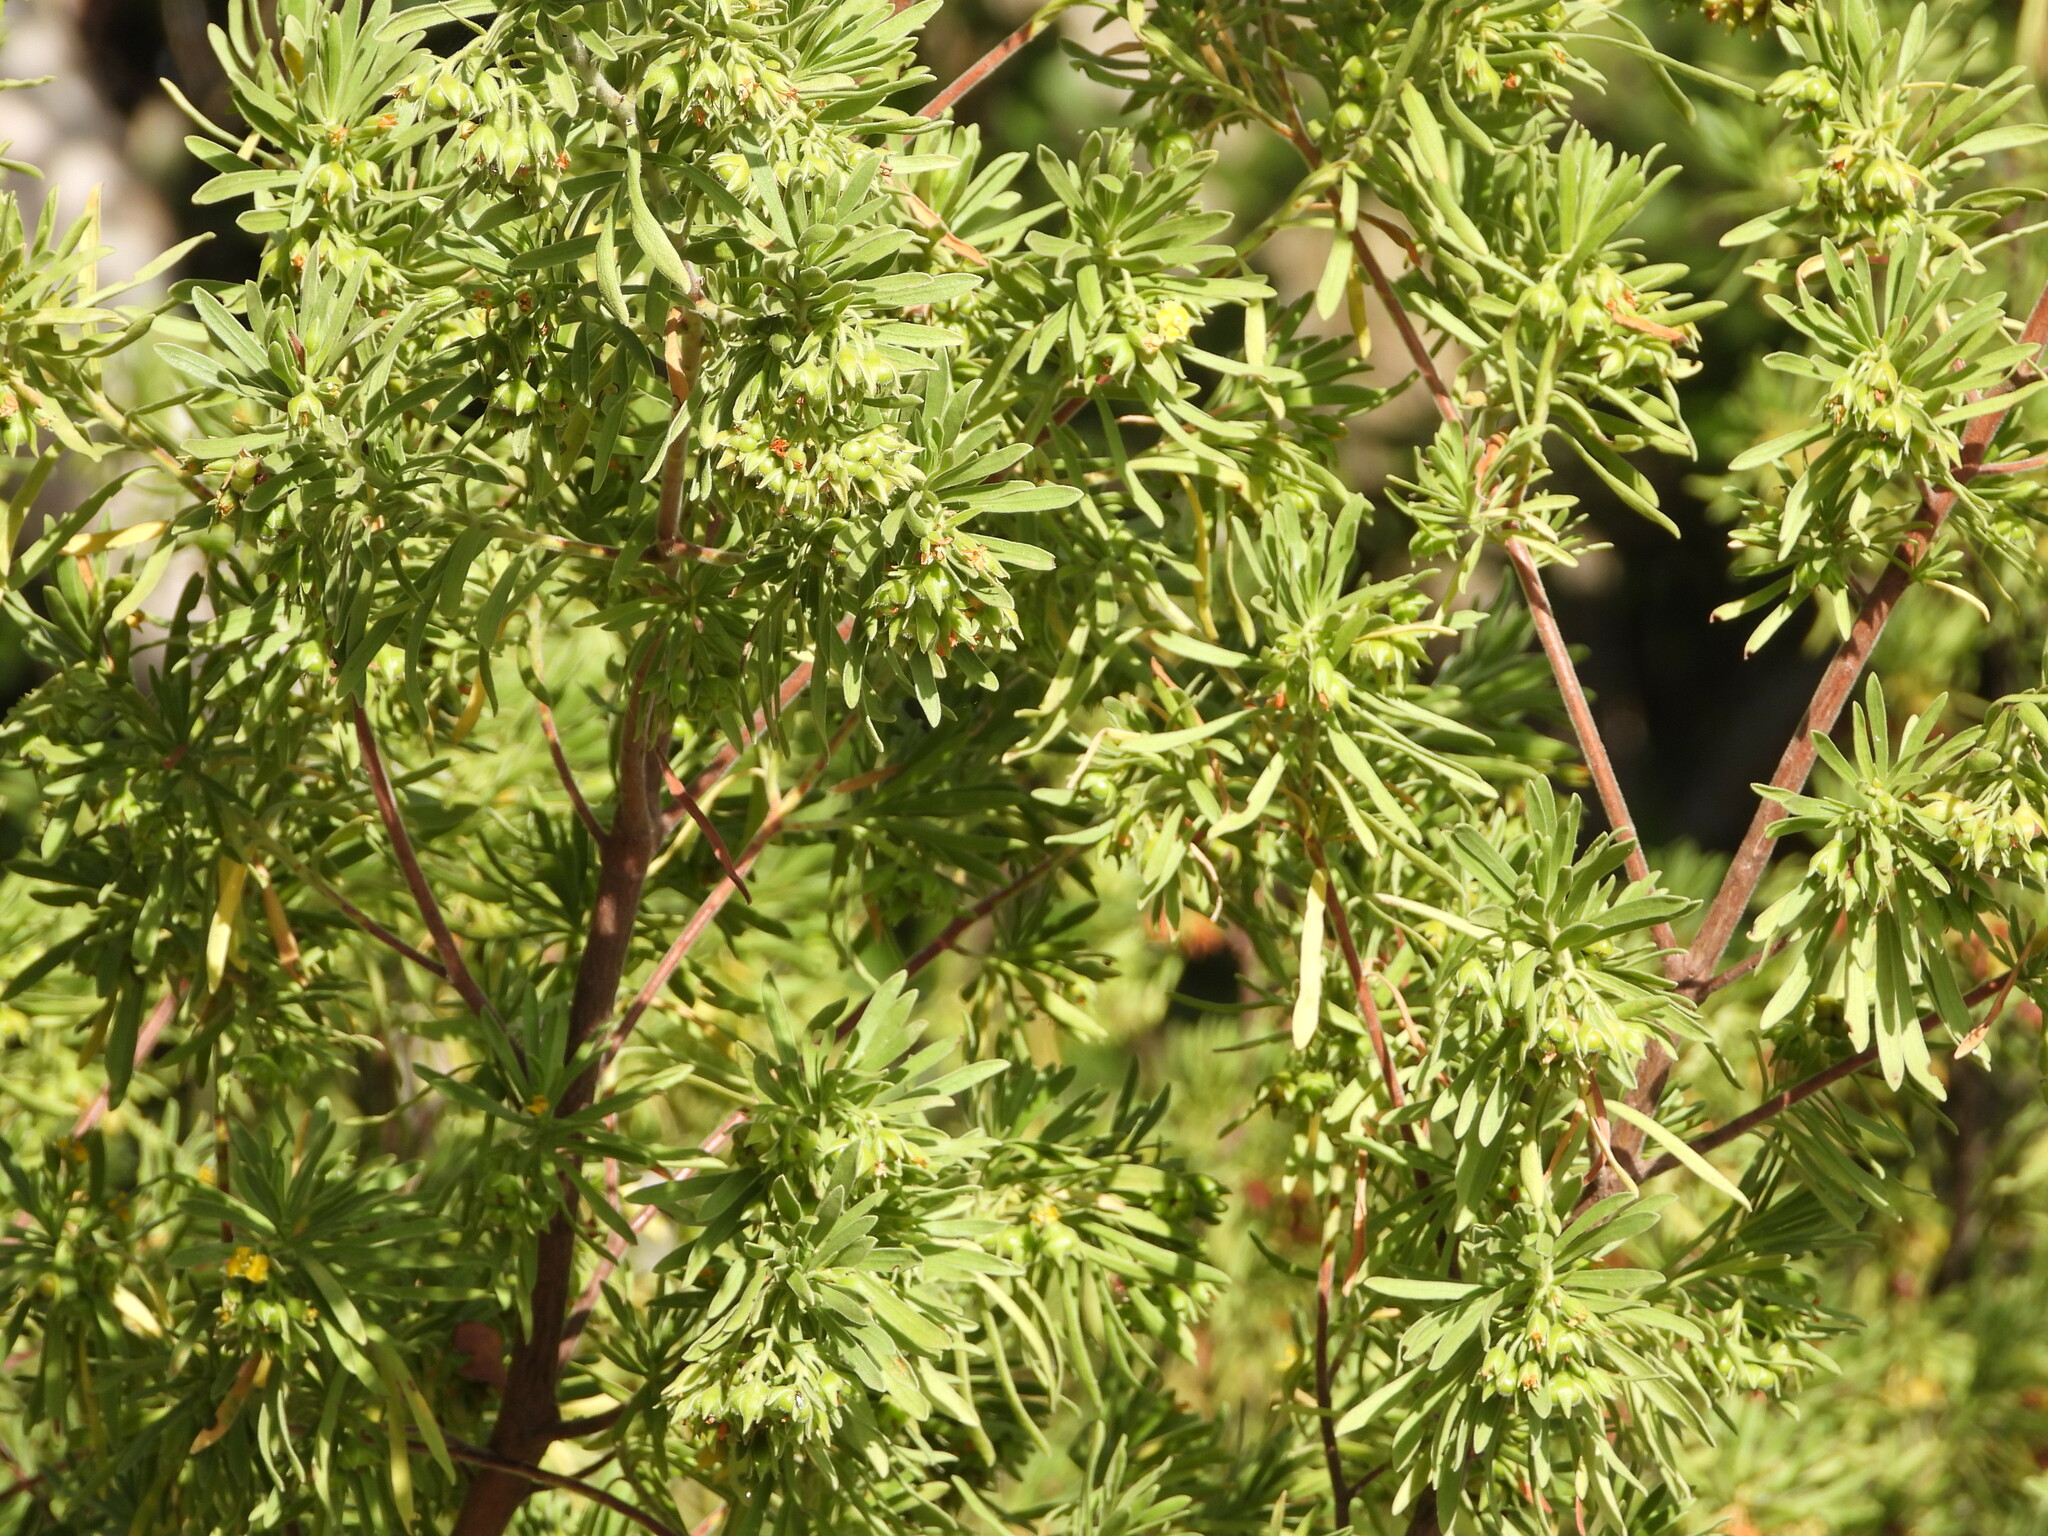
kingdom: Plantae
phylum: Tracheophyta
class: Magnoliopsida
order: Fabales
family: Surianaceae
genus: Suriana
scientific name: Suriana maritima
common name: Bay-cedar
